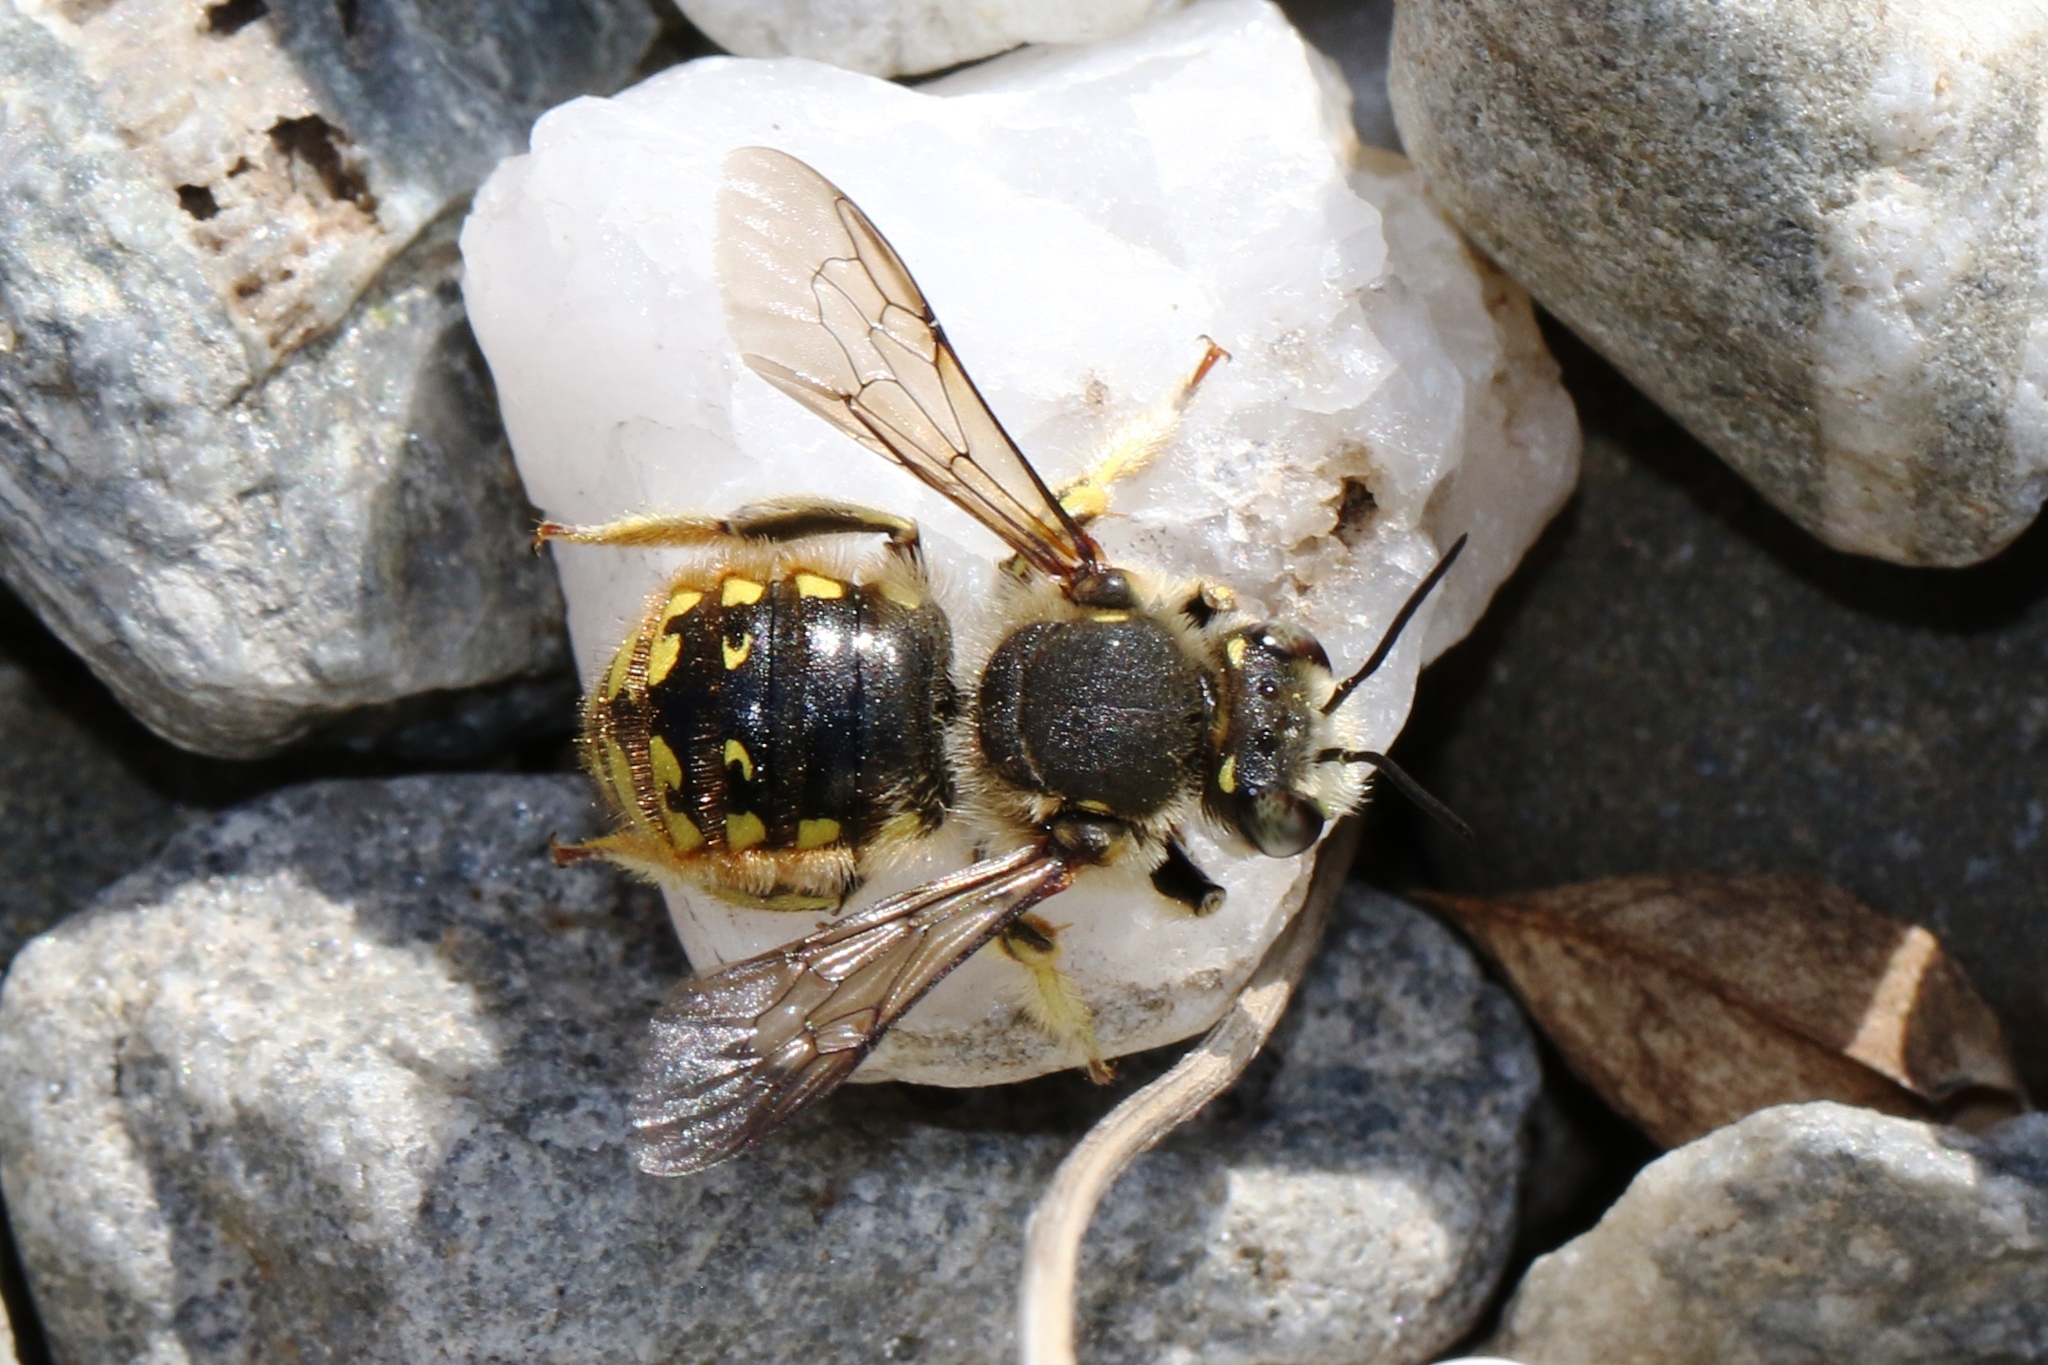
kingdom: Animalia
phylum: Arthropoda
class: Insecta
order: Hymenoptera
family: Megachilidae
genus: Anthidium
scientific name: Anthidium manicatum
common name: Wool carder bee
